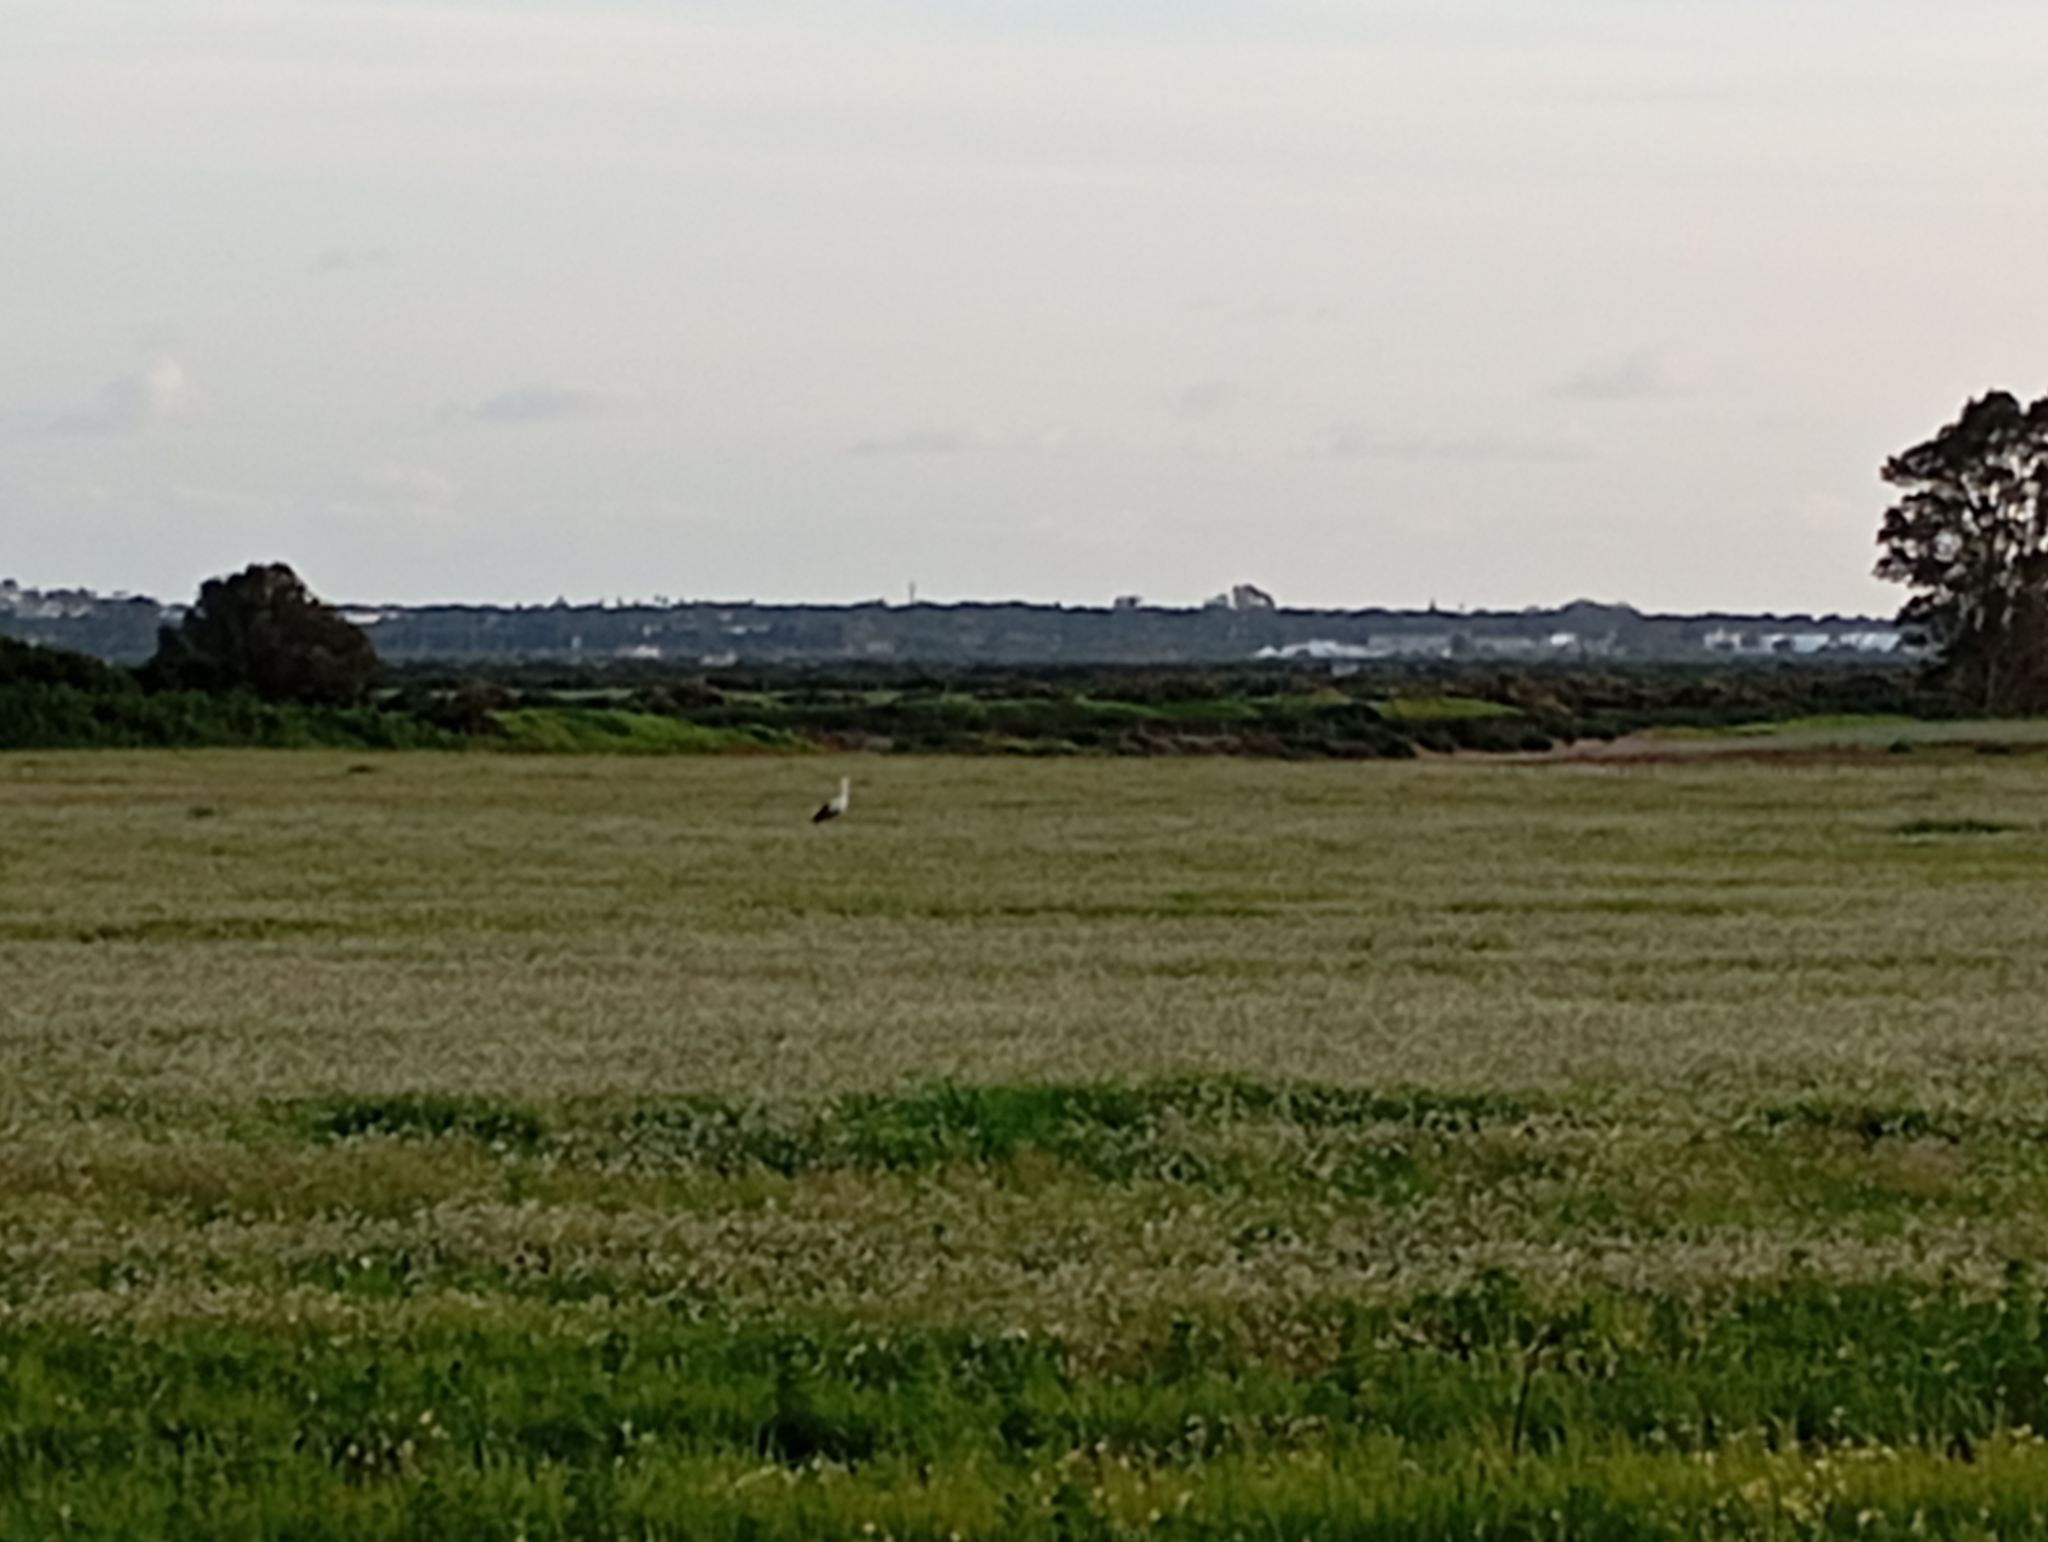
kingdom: Animalia
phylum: Chordata
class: Aves
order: Ciconiiformes
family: Ciconiidae
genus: Ciconia
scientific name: Ciconia ciconia
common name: White stork
